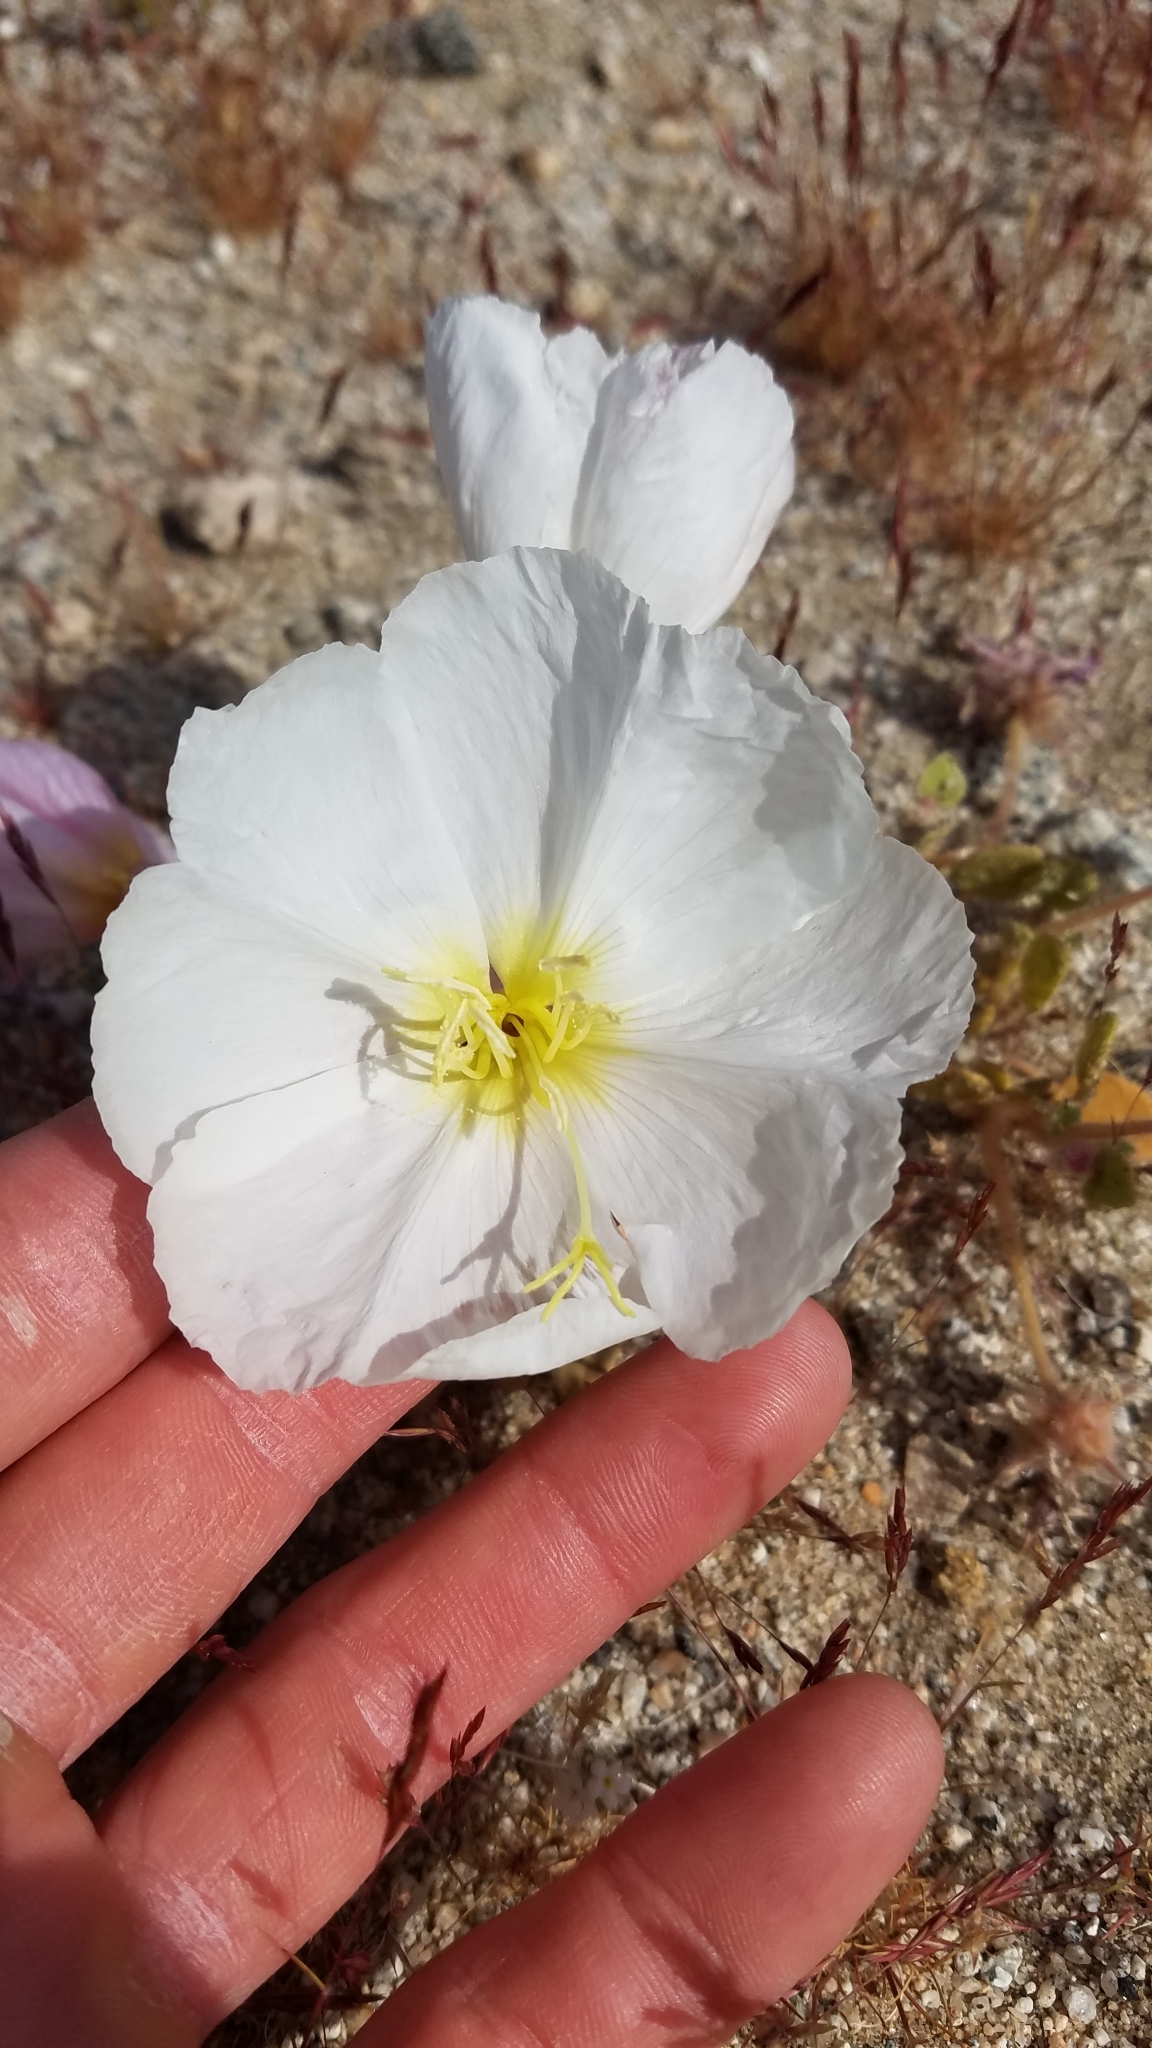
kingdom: Plantae
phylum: Tracheophyta
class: Magnoliopsida
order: Myrtales
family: Onagraceae
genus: Oenothera
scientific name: Oenothera deltoides
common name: Basket evening-primrose
